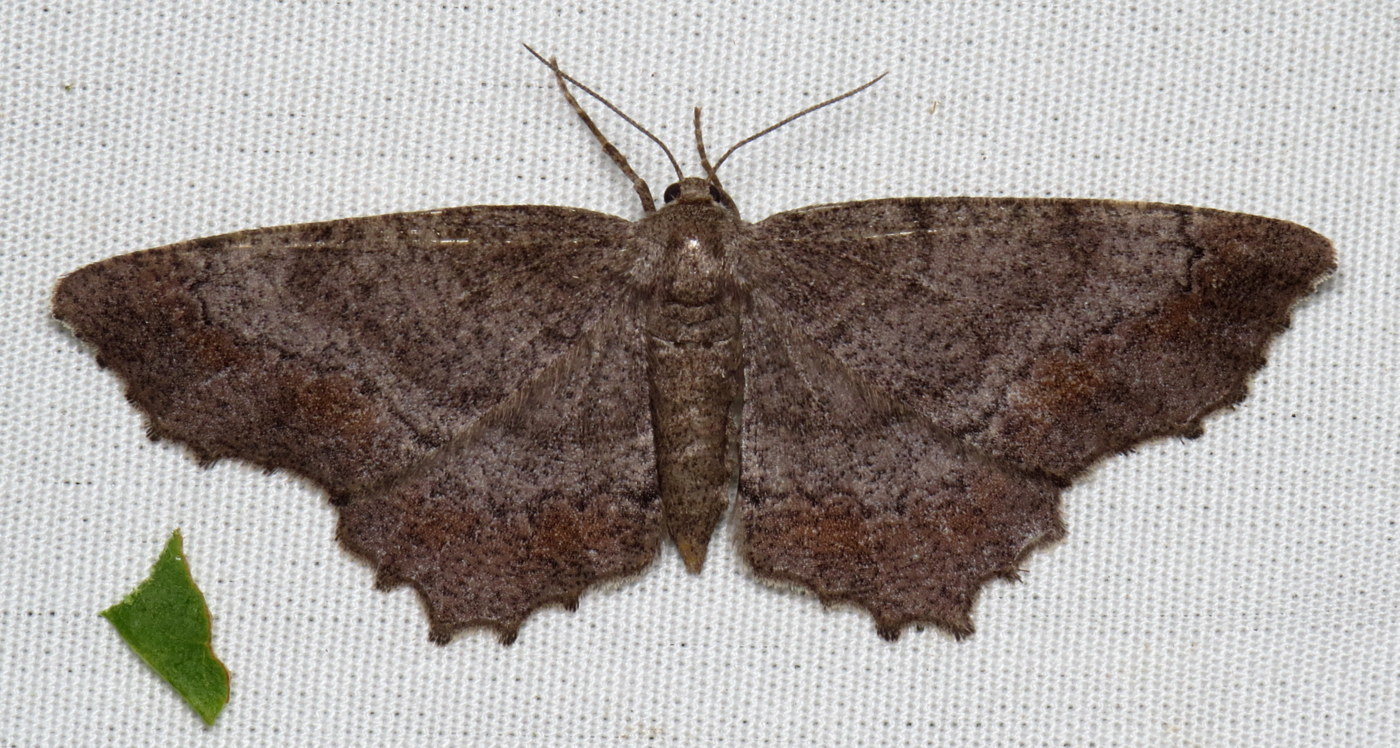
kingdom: Animalia
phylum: Arthropoda
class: Insecta
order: Lepidoptera
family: Geometridae
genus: Hypagyrtis
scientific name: Hypagyrtis esther
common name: Esther moth
